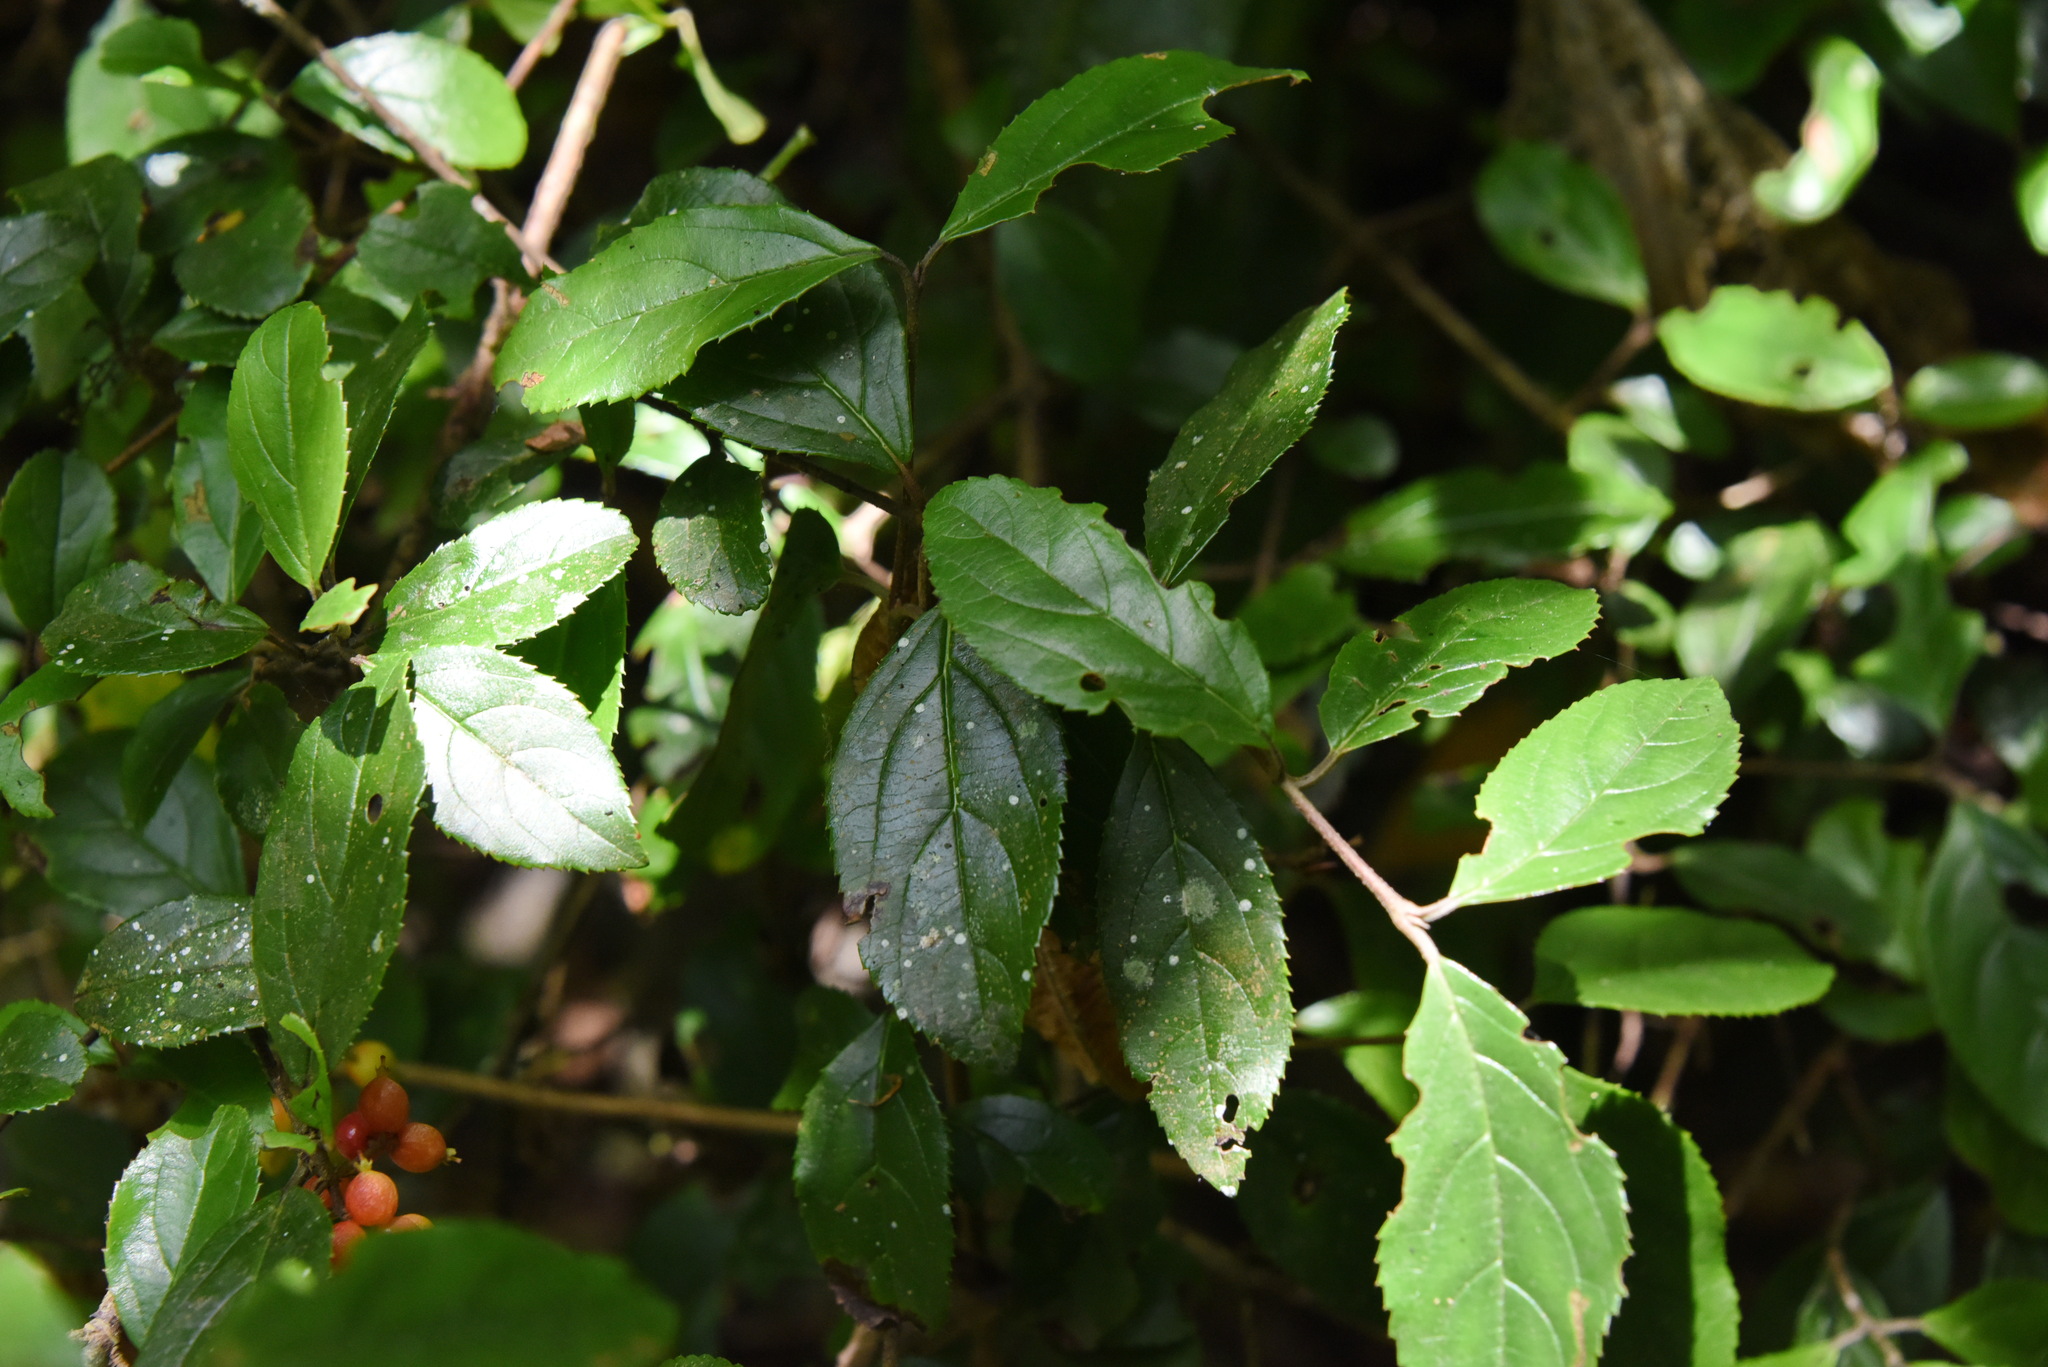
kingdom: Plantae
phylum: Tracheophyta
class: Magnoliopsida
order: Dipsacales
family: Viburnaceae
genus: Viburnum
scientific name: Viburnum suspensum
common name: Viburnum
